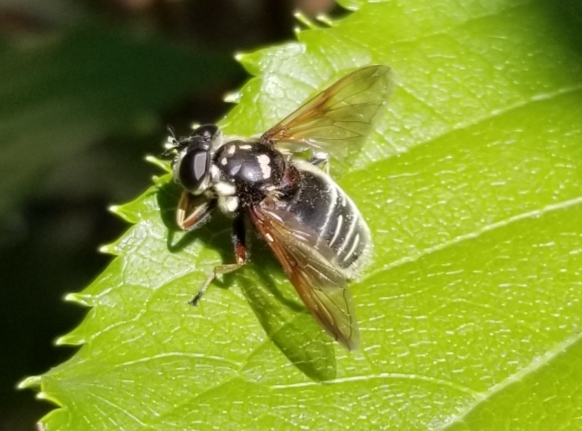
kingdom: Animalia
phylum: Arthropoda
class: Insecta
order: Diptera
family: Syrphidae
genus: Sericomyia
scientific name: Sericomyia militaris
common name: Narrow-banded pond fly
